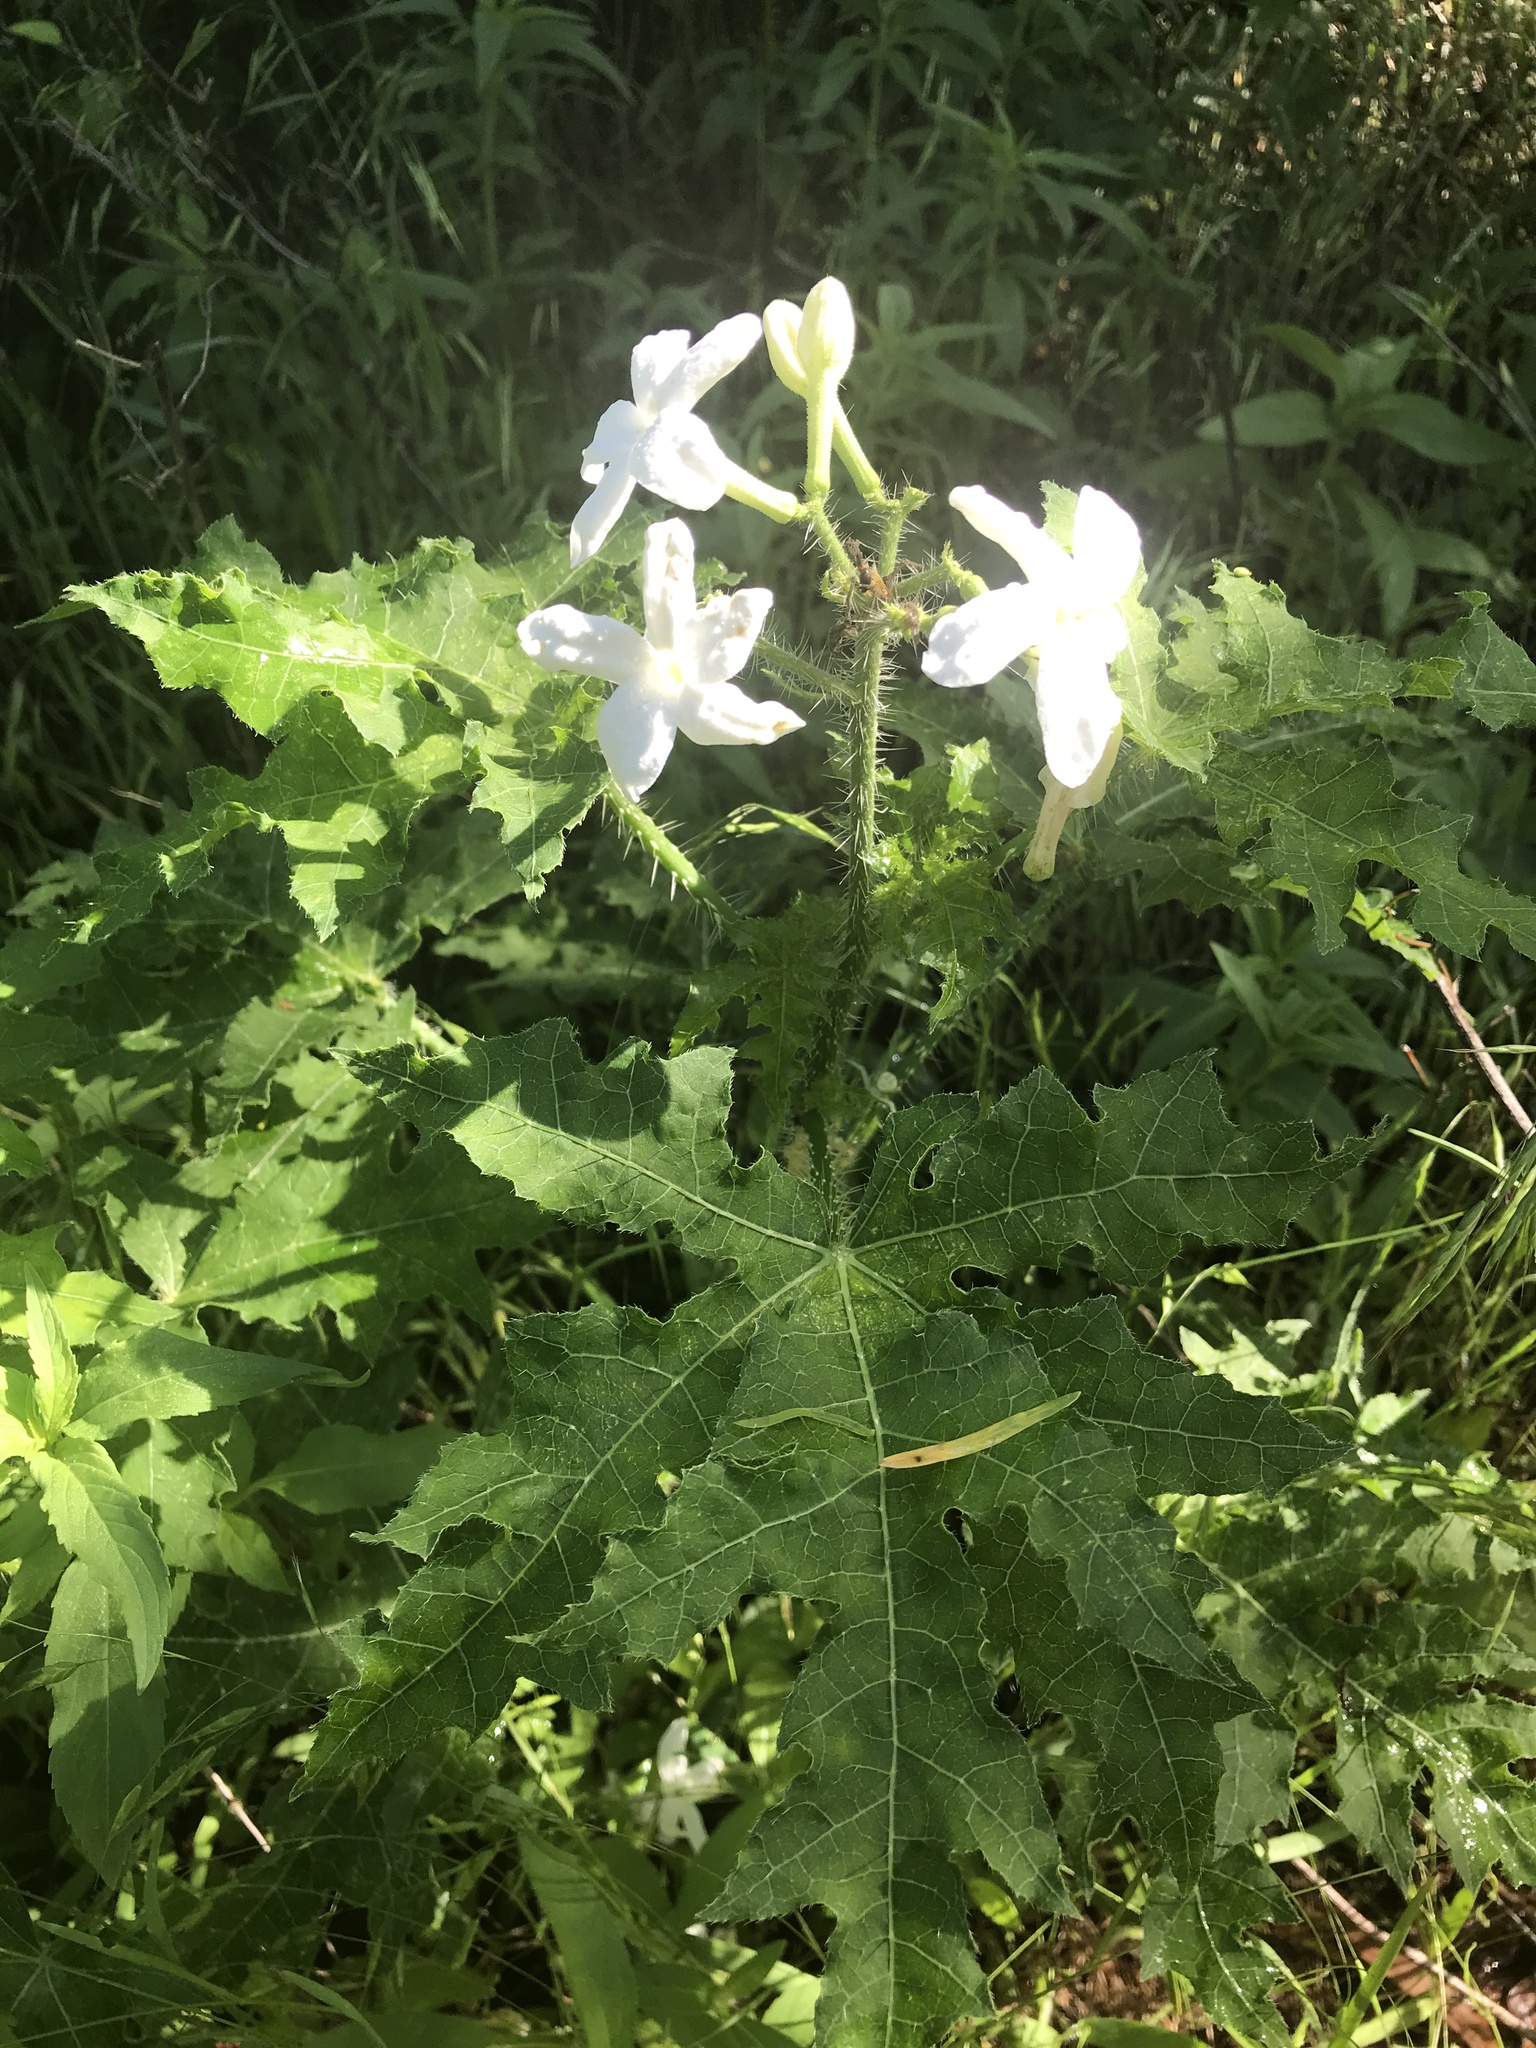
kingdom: Plantae
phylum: Tracheophyta
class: Magnoliopsida
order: Malpighiales
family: Euphorbiaceae
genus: Cnidoscolus
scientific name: Cnidoscolus texanus
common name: Texas bull-nettle
